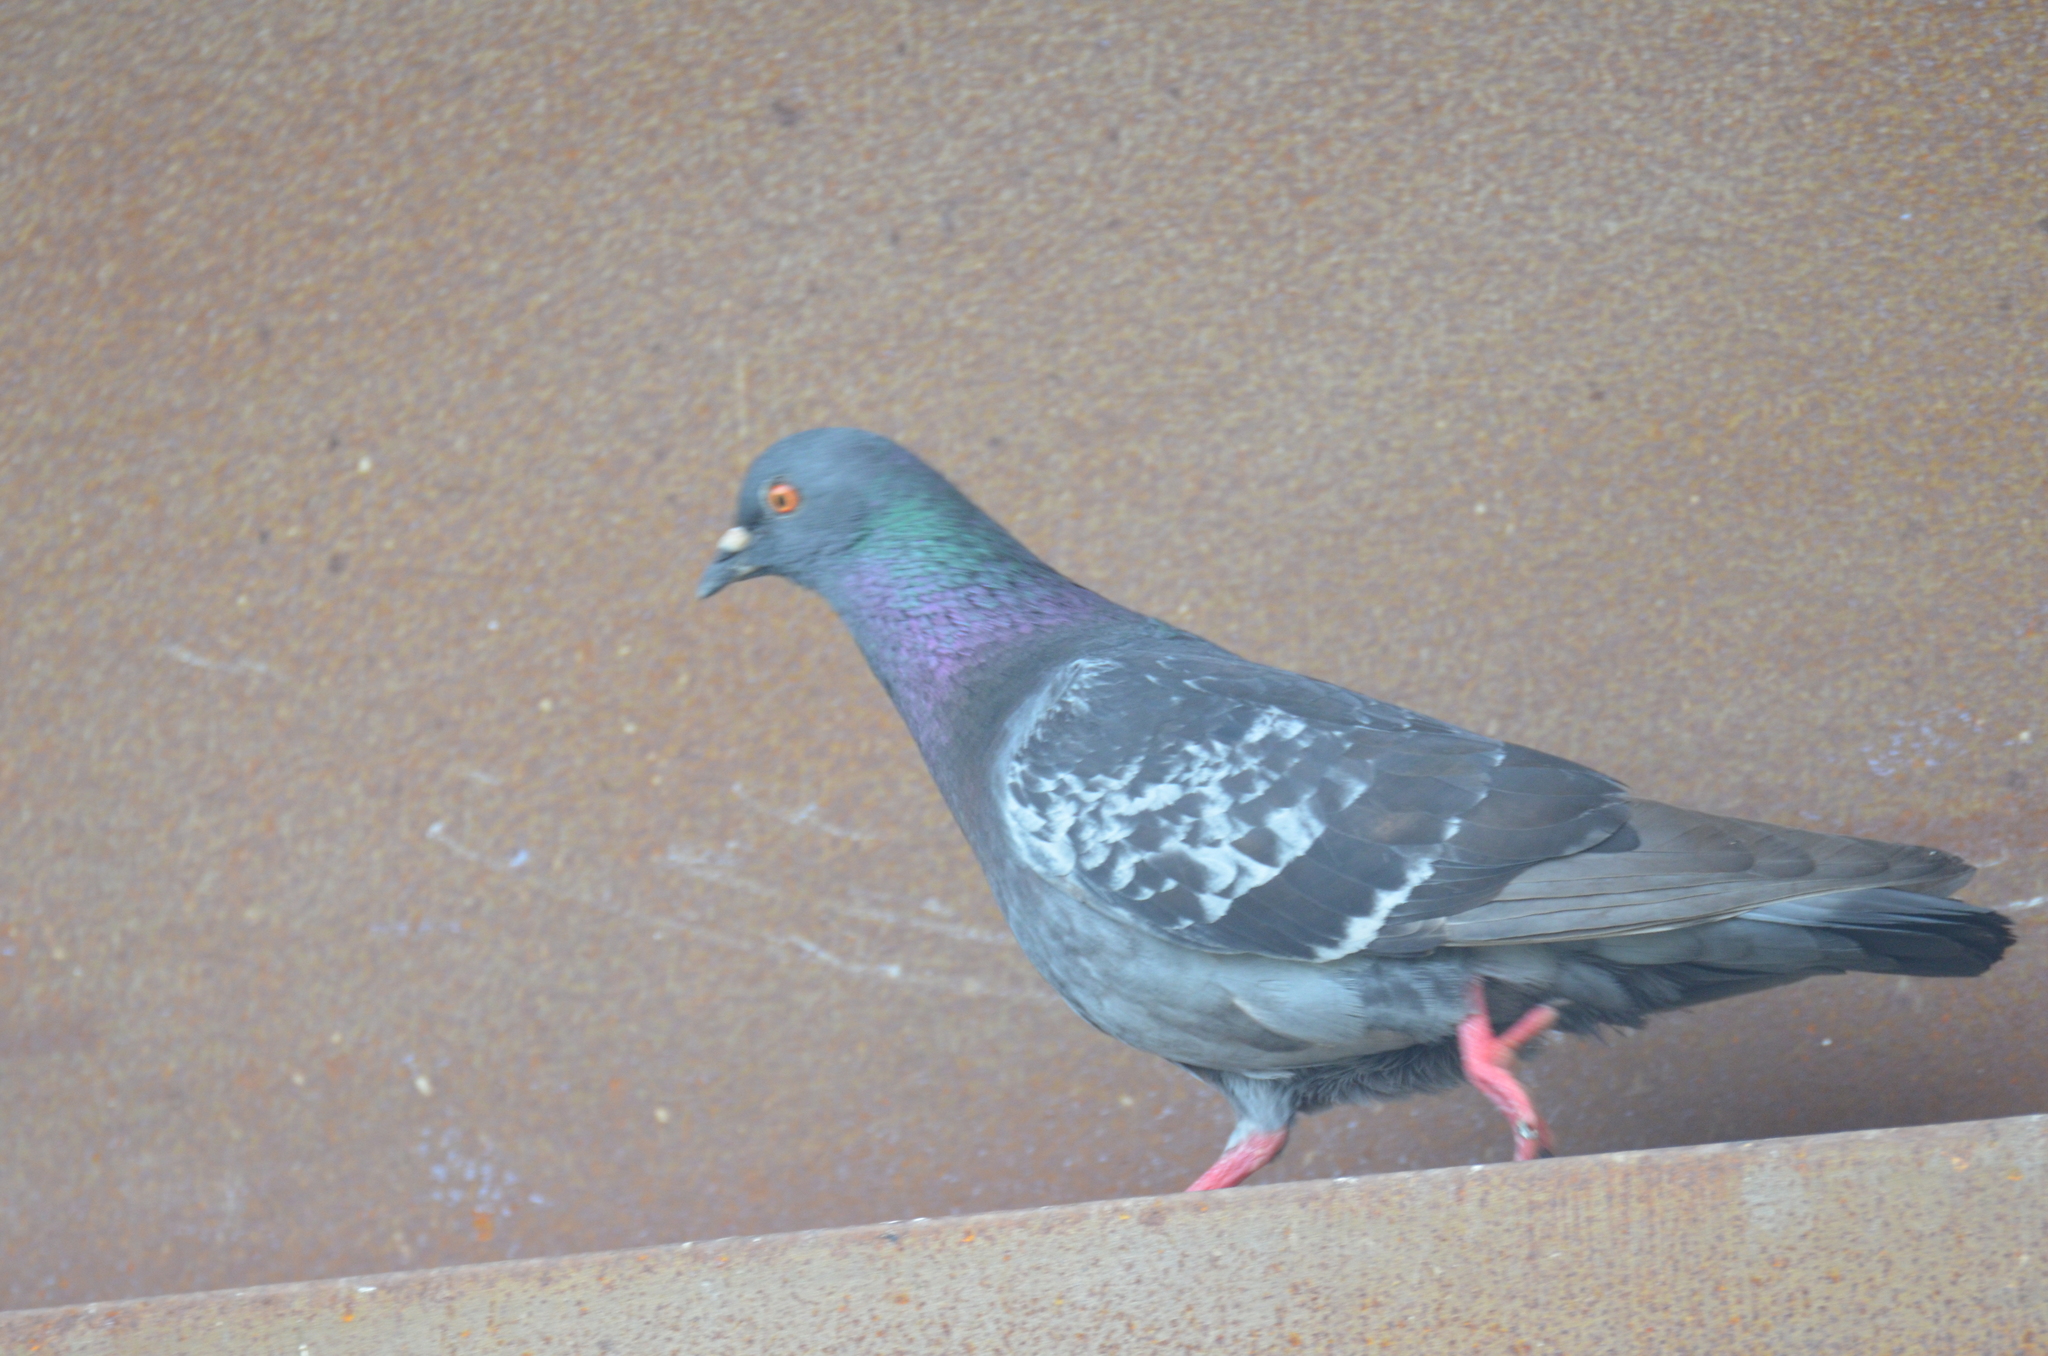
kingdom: Animalia
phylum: Chordata
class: Aves
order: Columbiformes
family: Columbidae
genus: Columba
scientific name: Columba livia
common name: Rock pigeon
